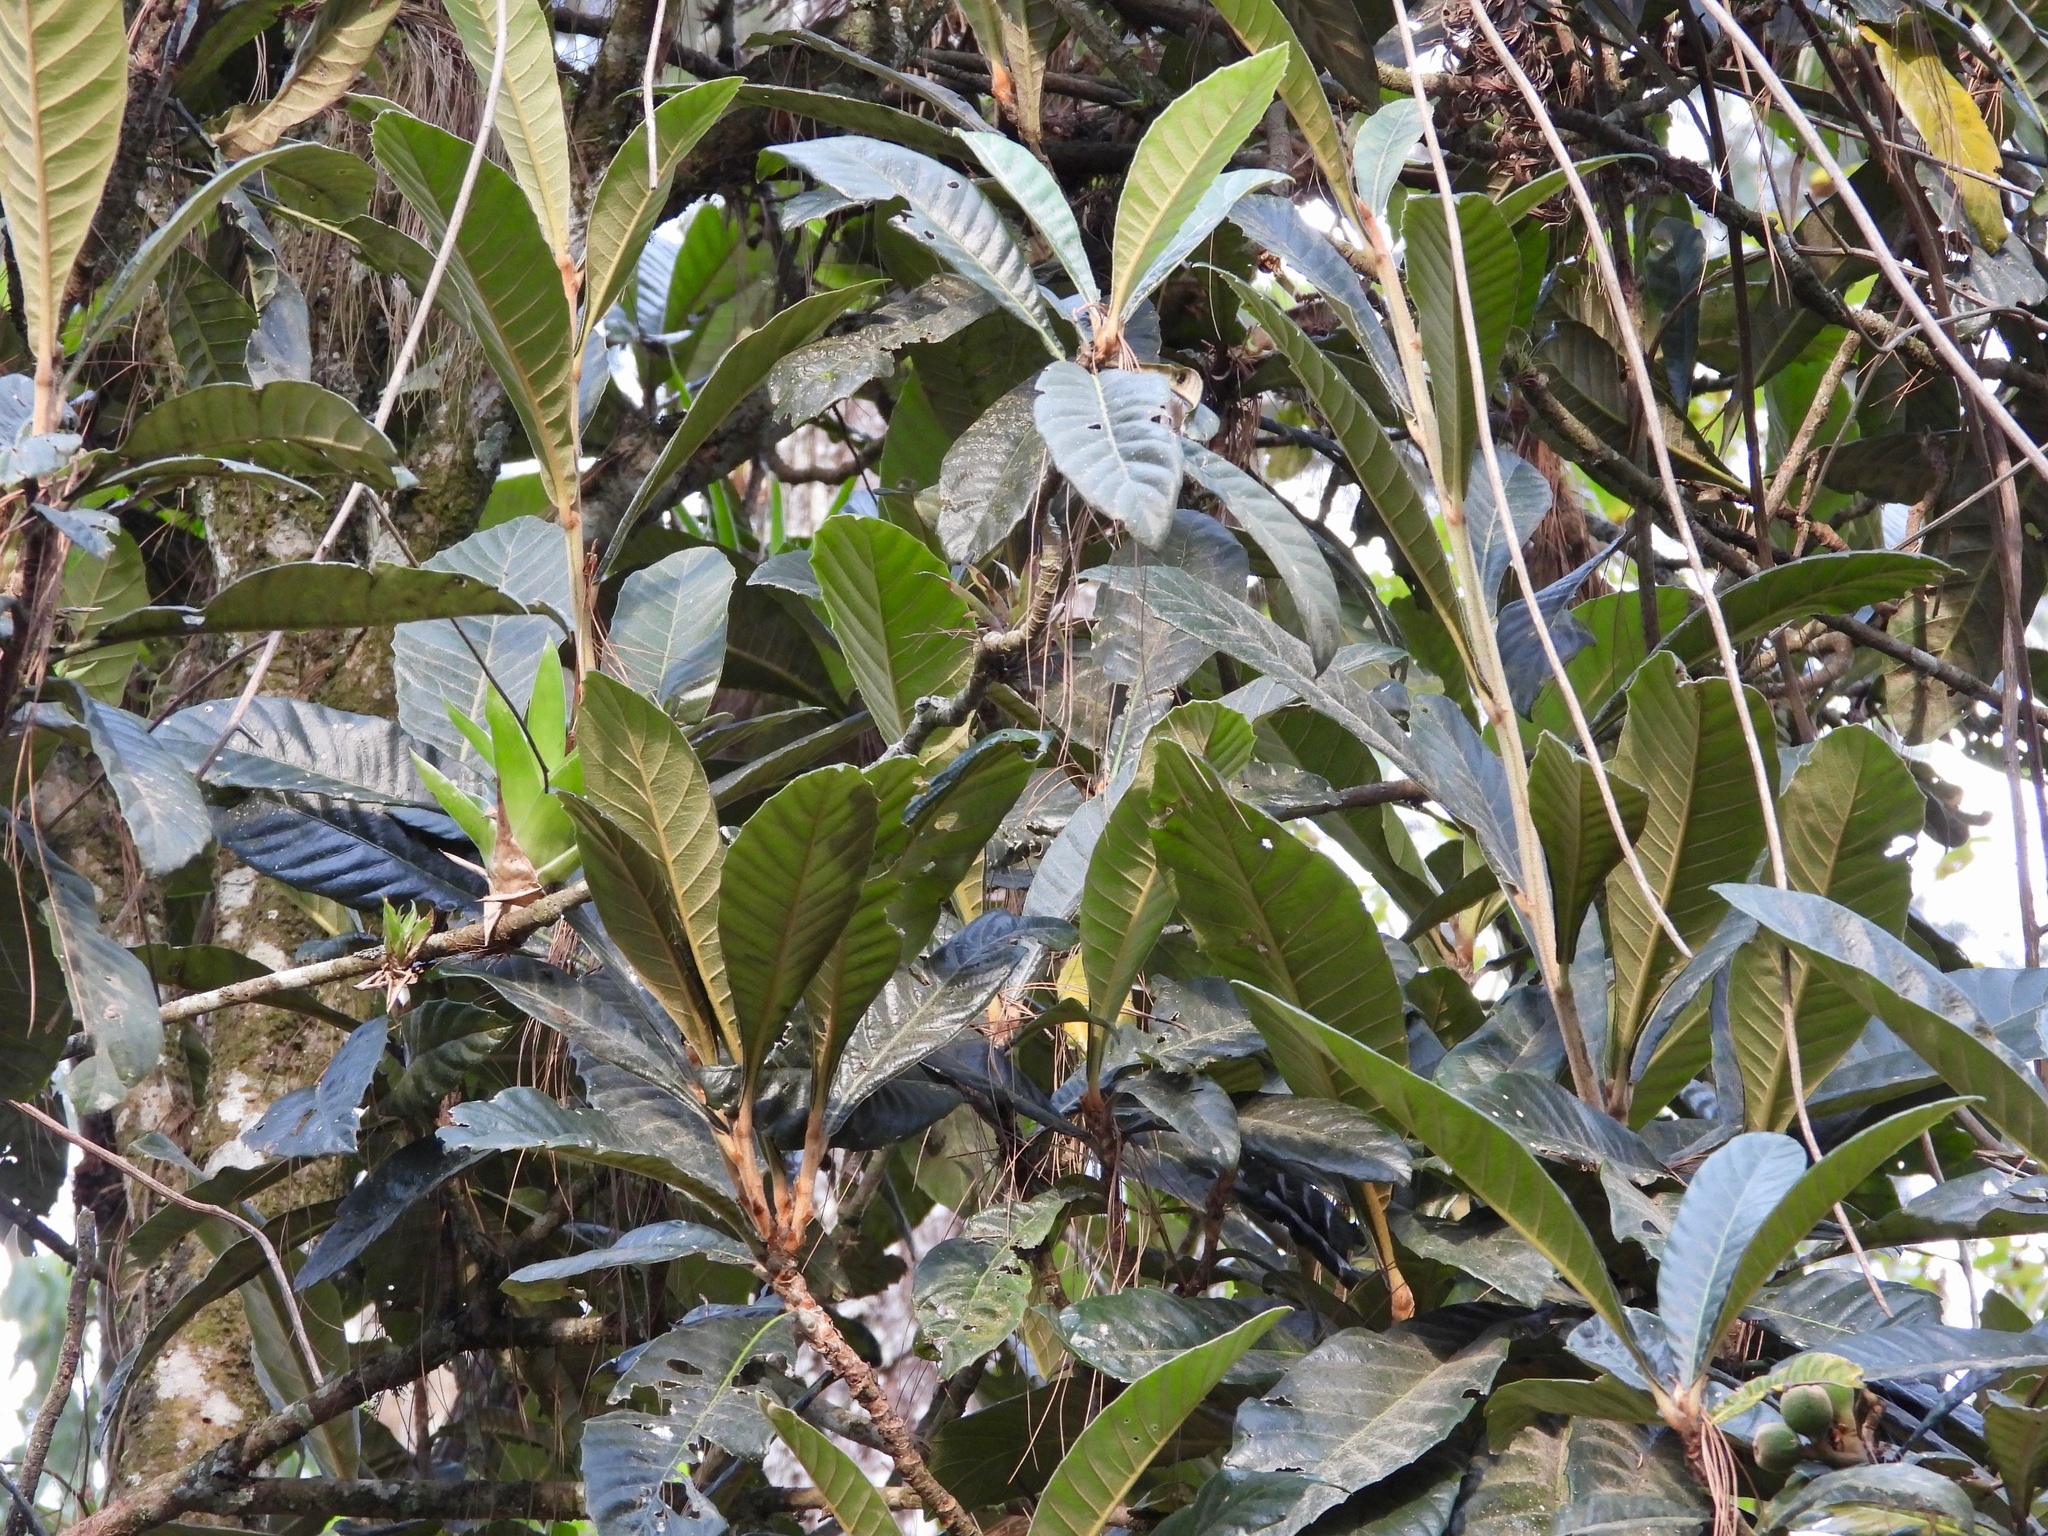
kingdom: Plantae
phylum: Tracheophyta
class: Magnoliopsida
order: Rosales
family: Rosaceae
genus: Rhaphiolepis
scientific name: Rhaphiolepis bibas
